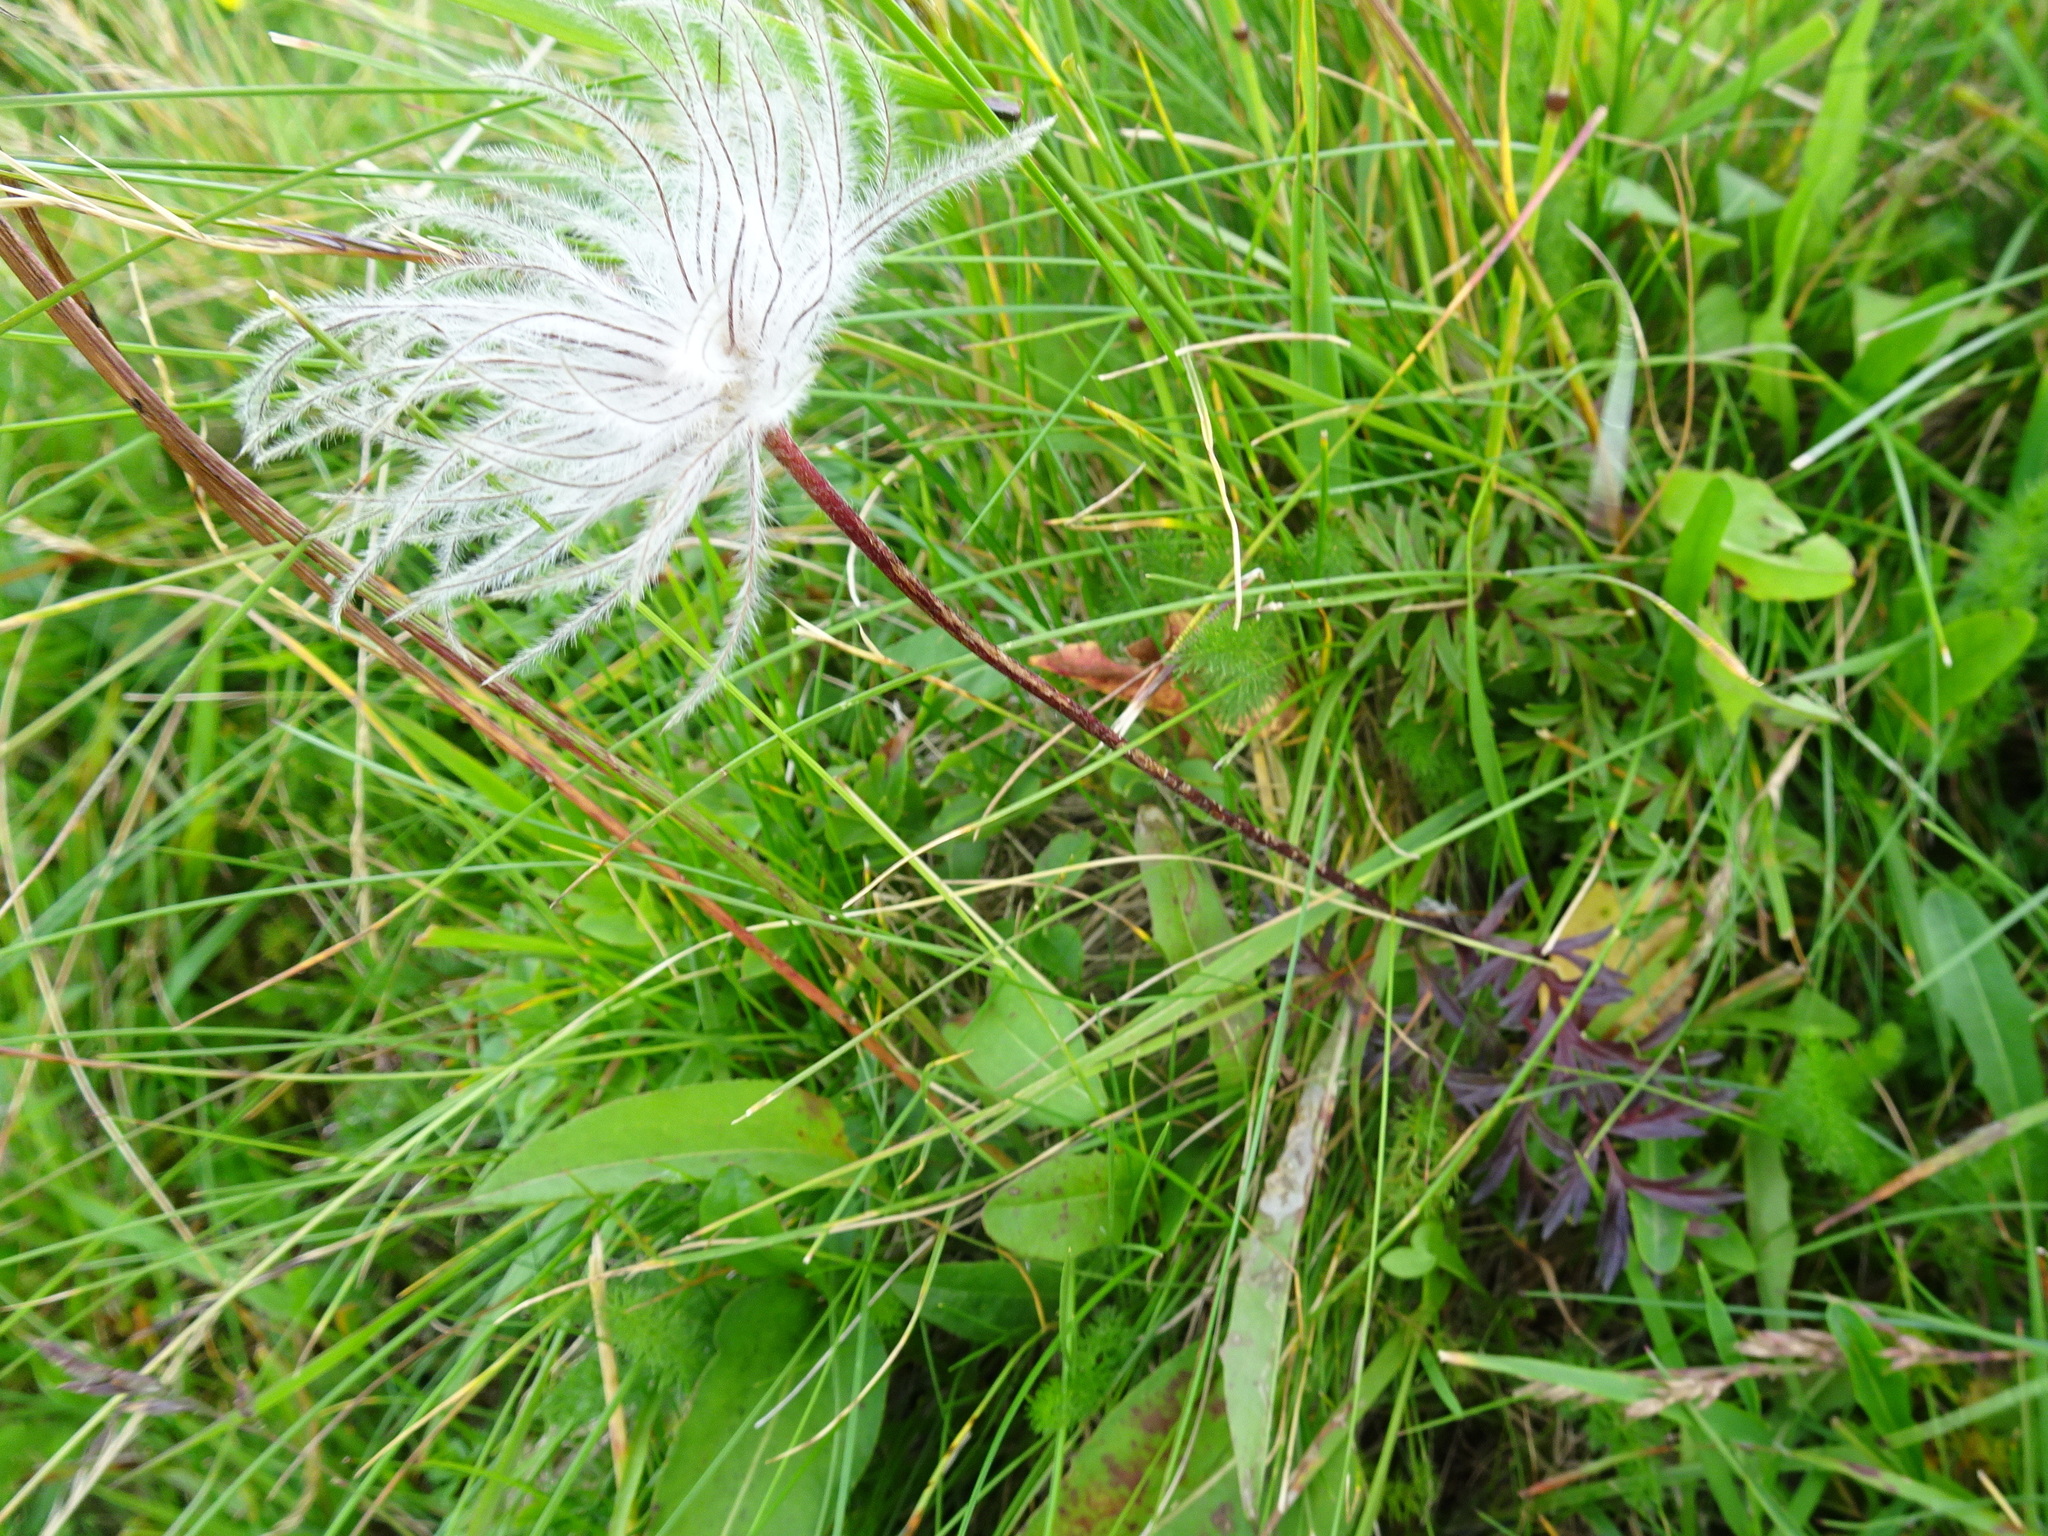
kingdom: Plantae
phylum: Tracheophyta
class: Magnoliopsida
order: Ranunculales
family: Ranunculaceae
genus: Pulsatilla
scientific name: Pulsatilla alpina
